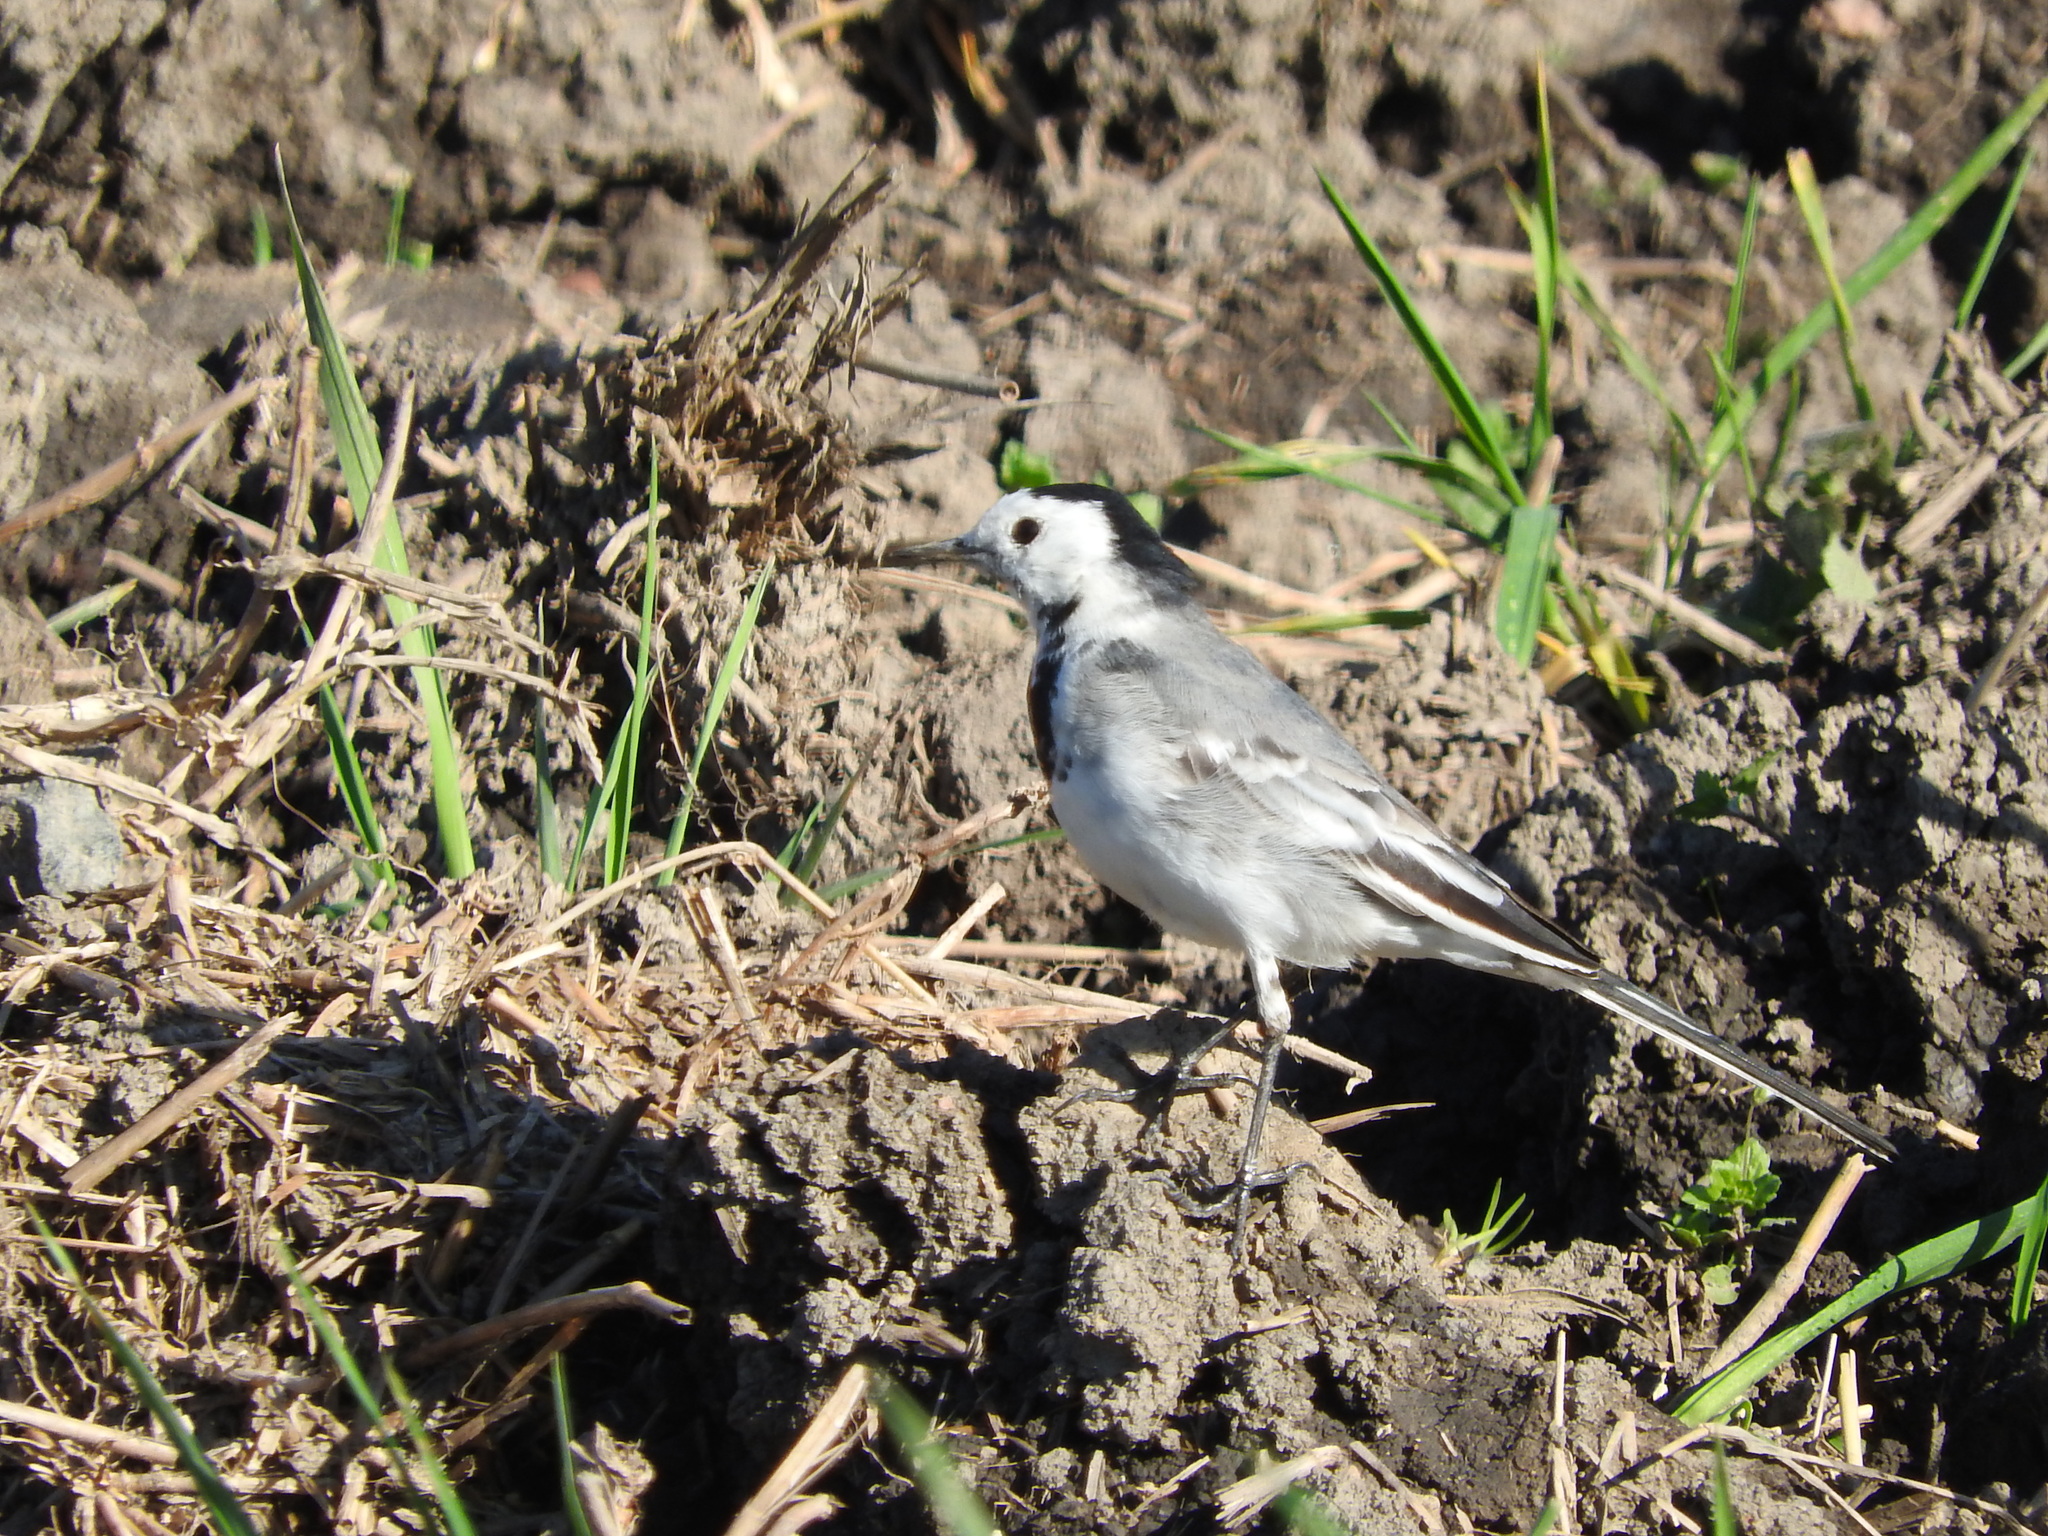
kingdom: Animalia
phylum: Chordata
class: Aves
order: Passeriformes
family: Motacillidae
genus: Motacilla
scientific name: Motacilla alba
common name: White wagtail
